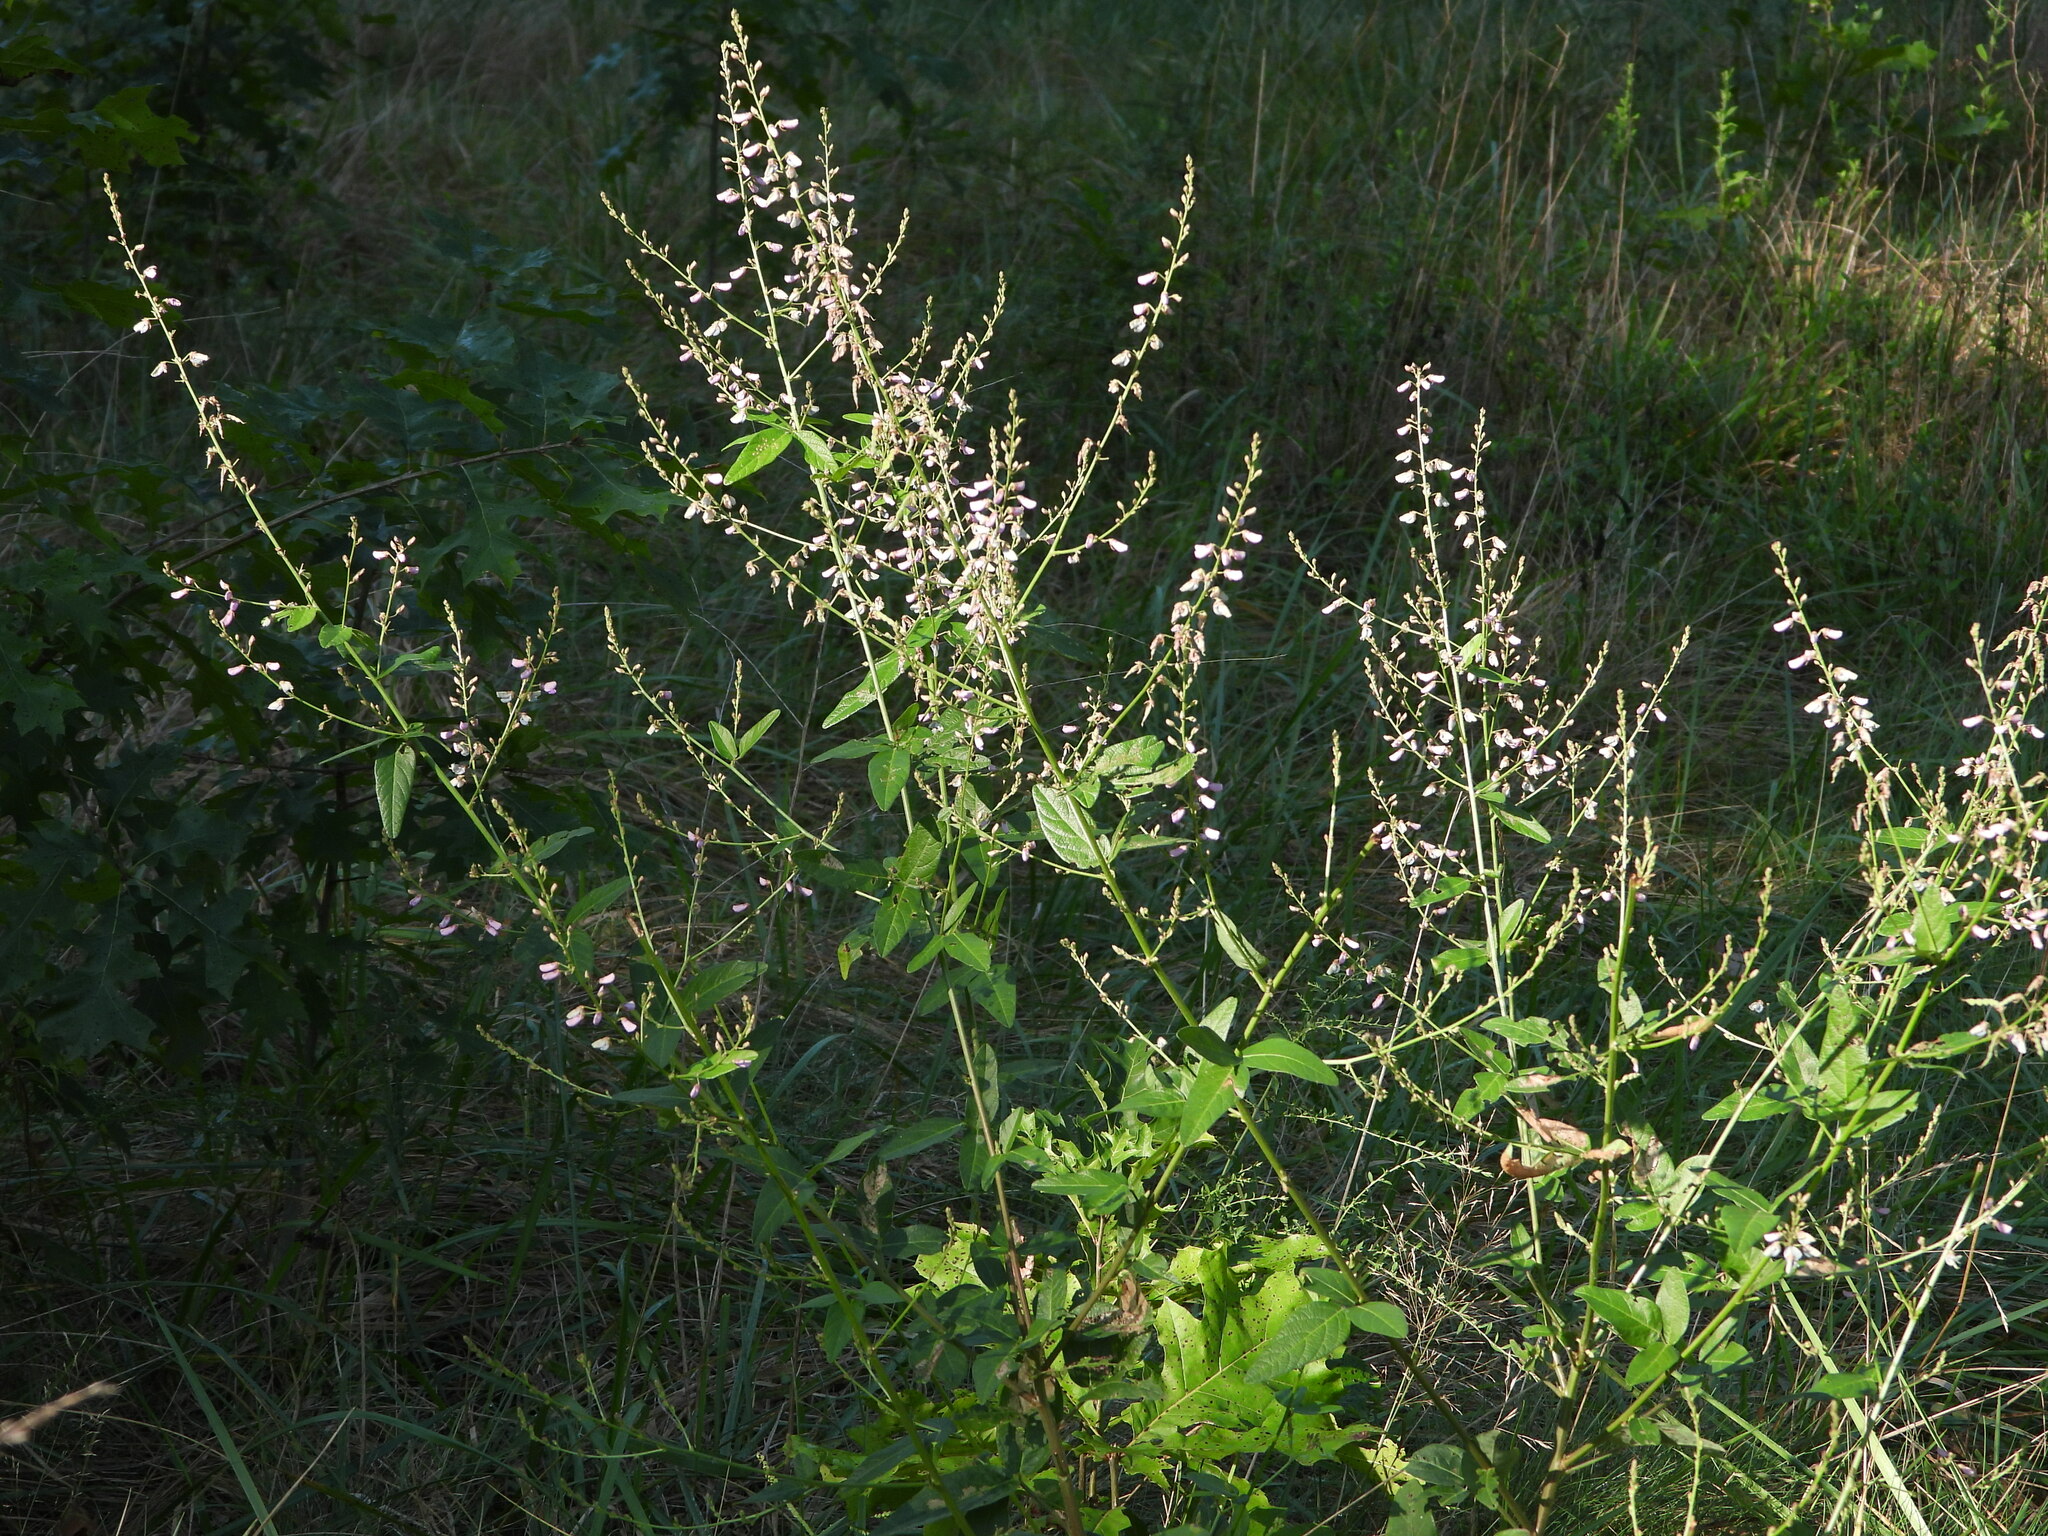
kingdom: Plantae
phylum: Tracheophyta
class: Magnoliopsida
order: Fabales
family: Fabaceae
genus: Desmodium
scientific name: Desmodium glabellum
